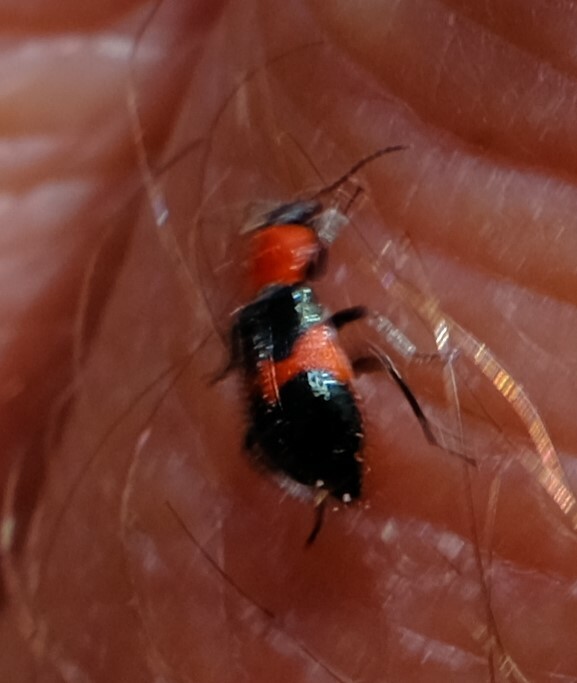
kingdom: Animalia
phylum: Arthropoda
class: Insecta
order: Coleoptera
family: Melyridae
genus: Dicranolaius
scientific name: Dicranolaius
